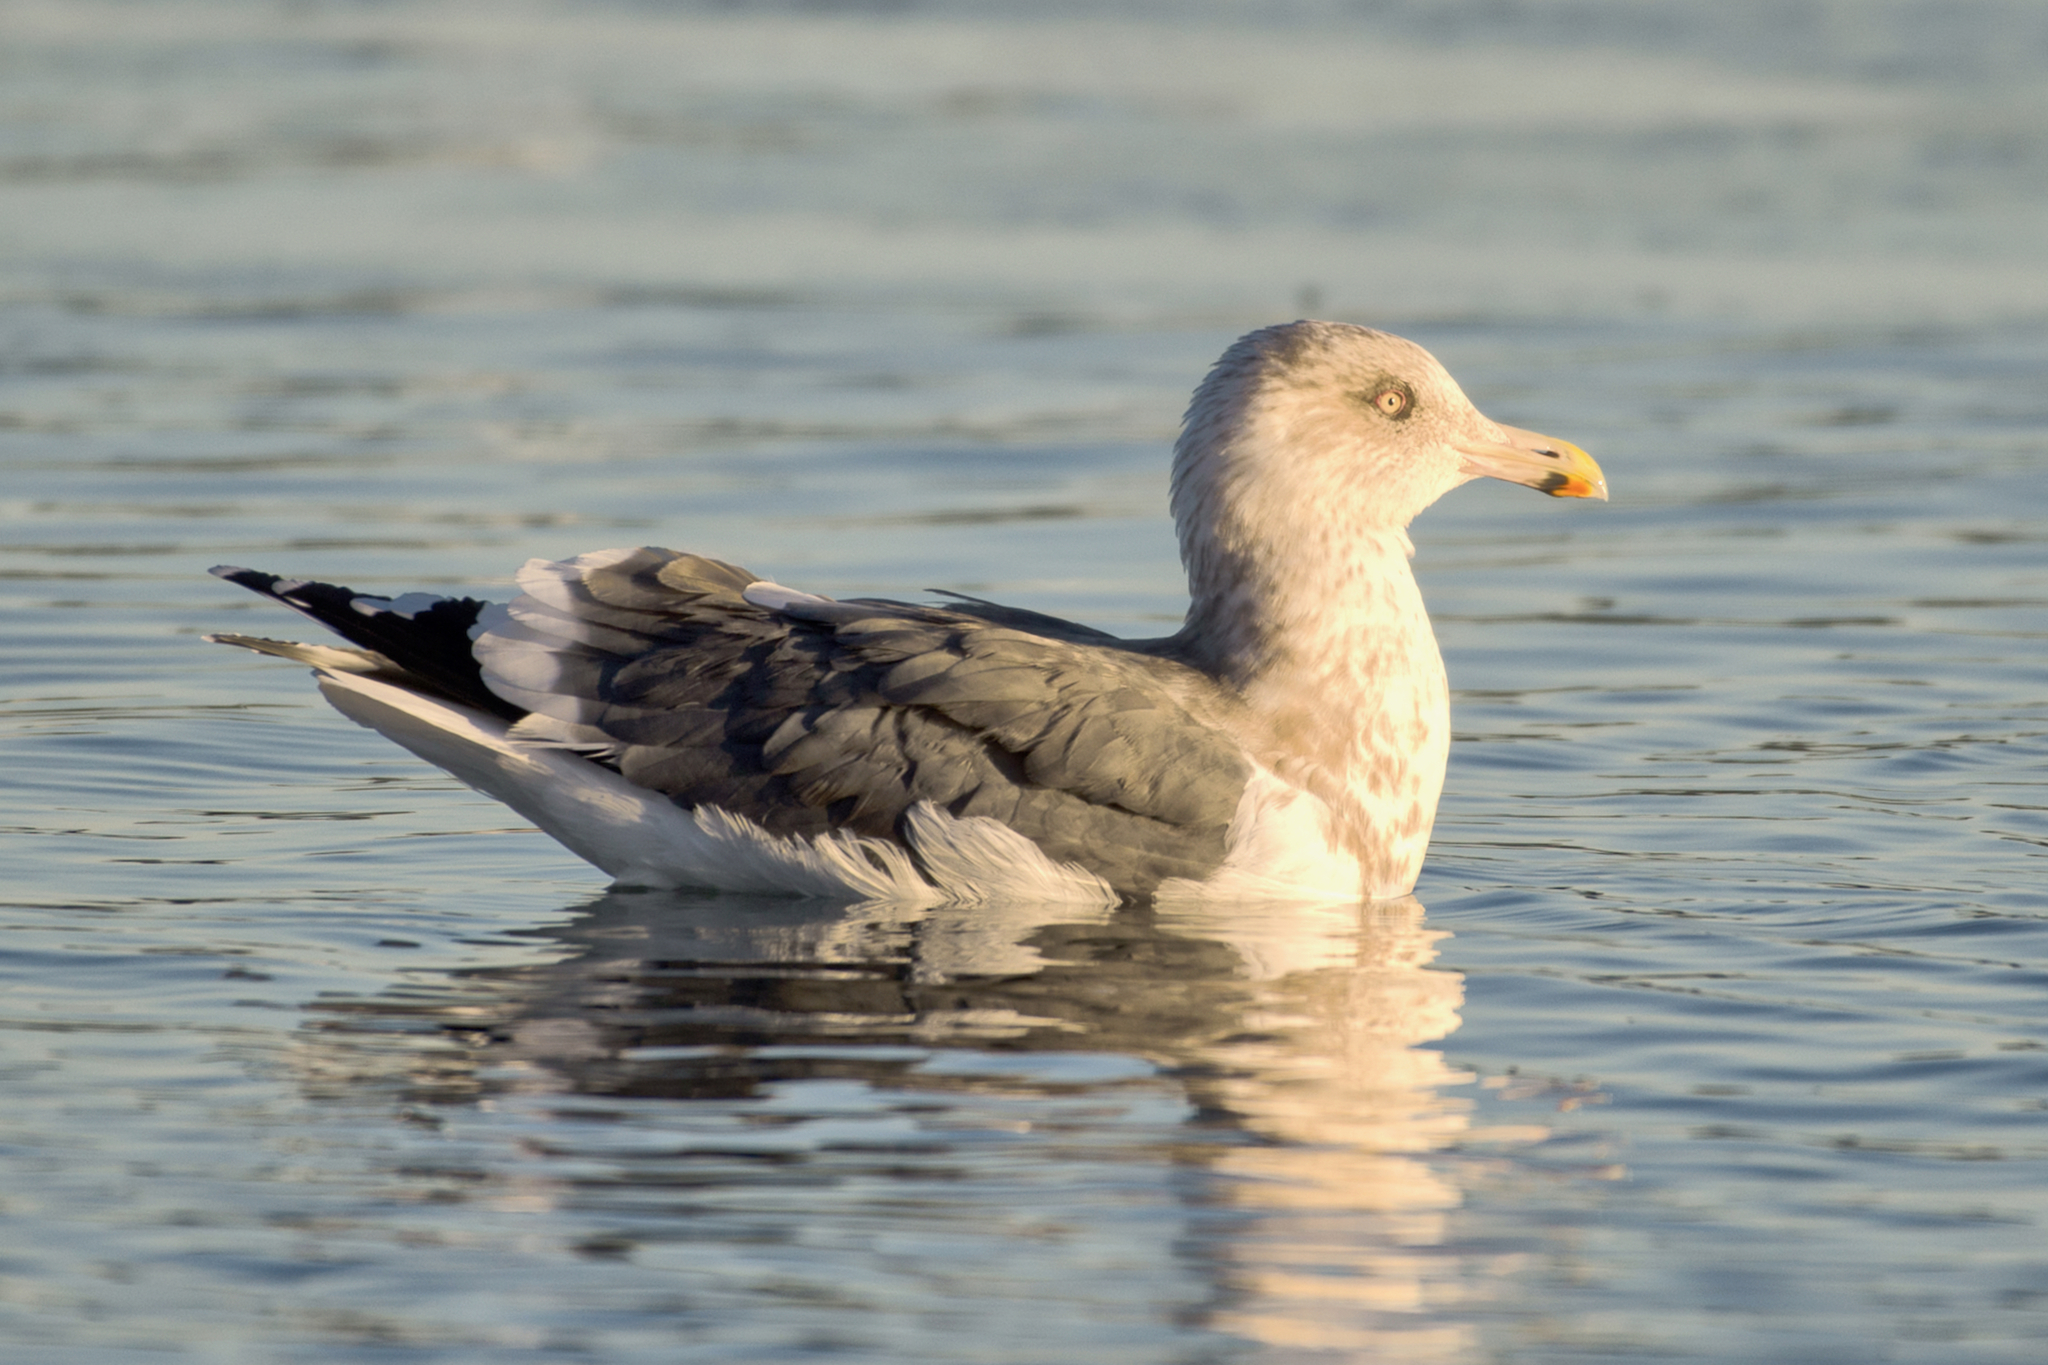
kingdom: Animalia
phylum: Chordata
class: Aves
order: Charadriiformes
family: Laridae
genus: Larus
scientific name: Larus schistisagus
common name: Slaty-backed gull
